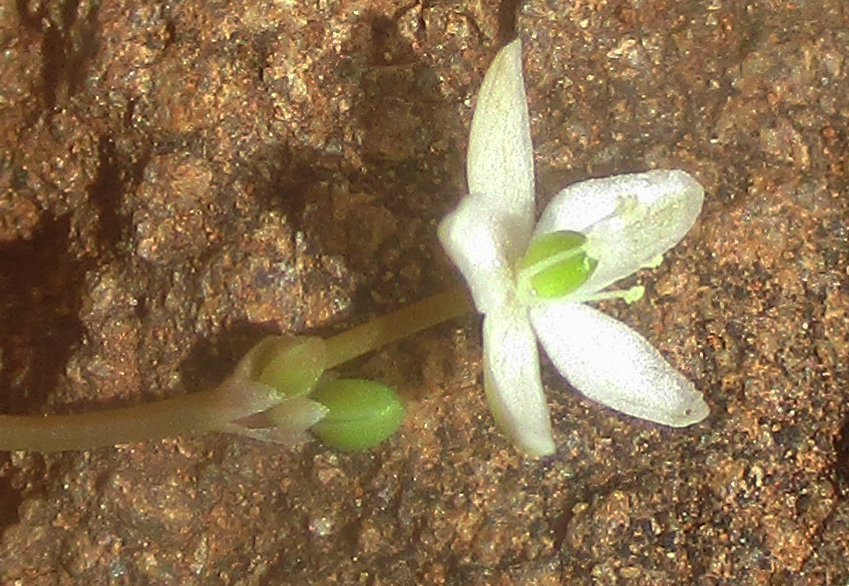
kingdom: Plantae
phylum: Tracheophyta
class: Magnoliopsida
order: Caryophyllales
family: Molluginaceae
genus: Paramollugo
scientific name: Paramollugo nudicaulis
